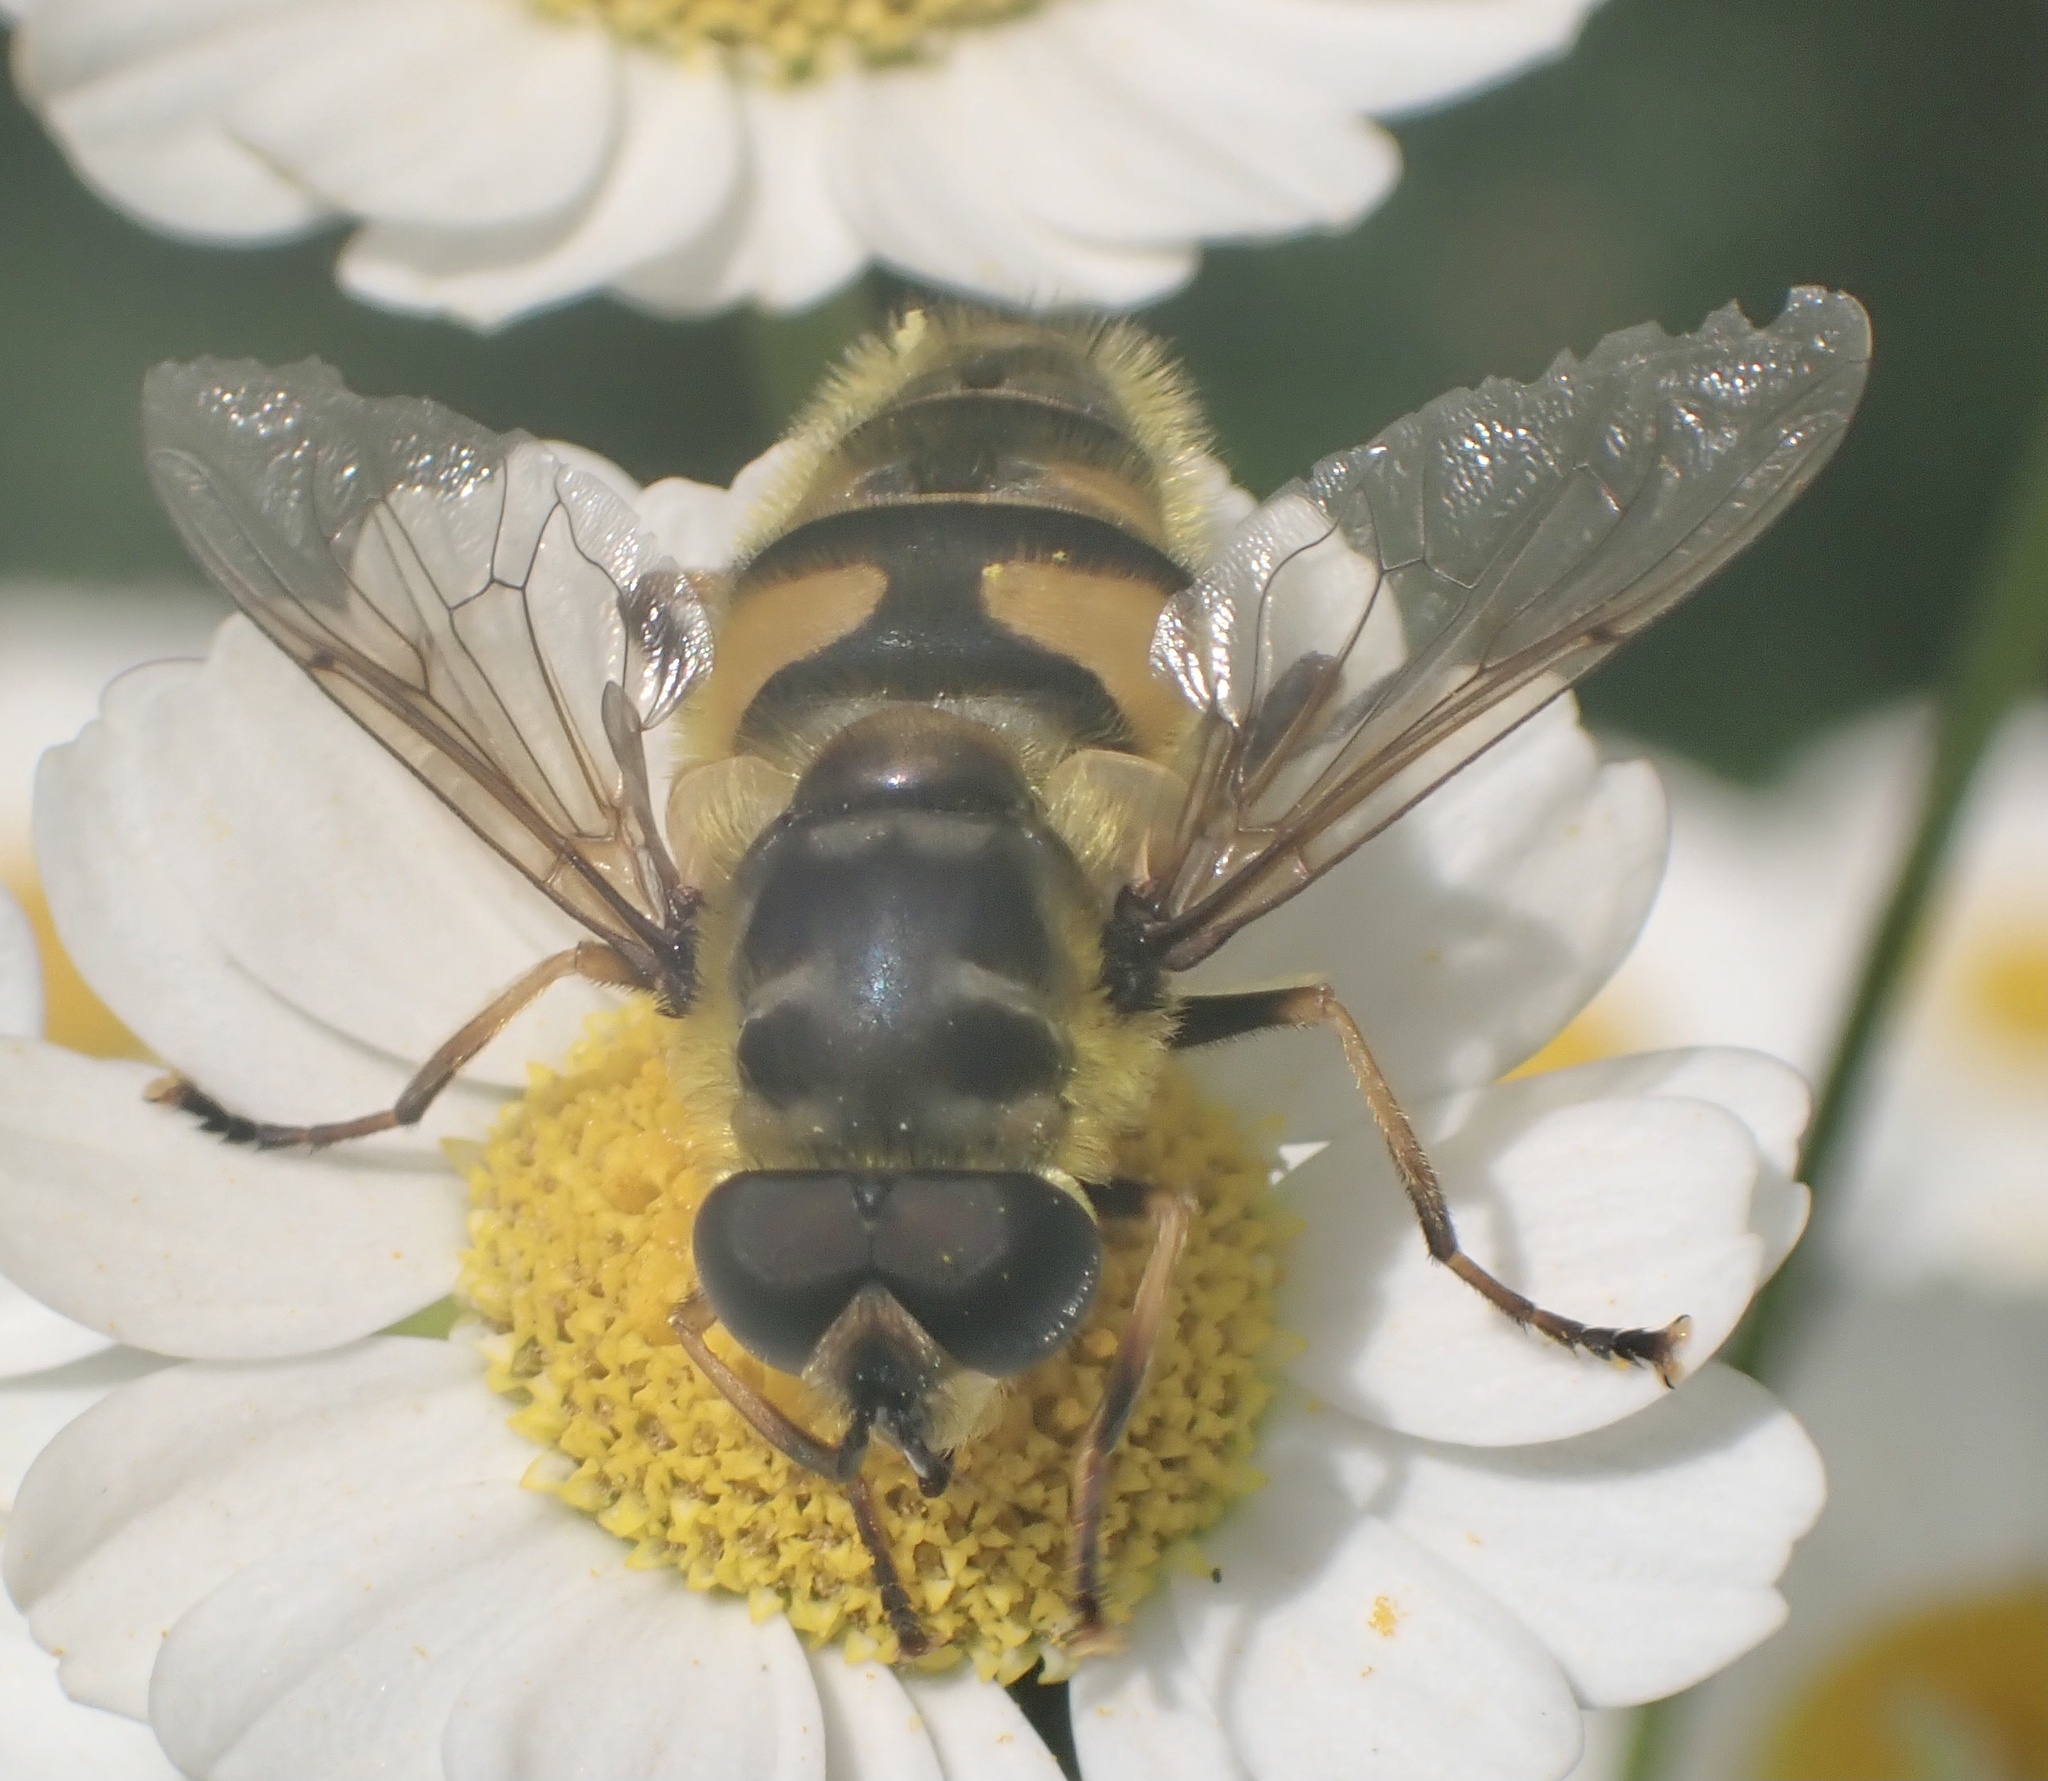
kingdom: Animalia
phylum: Arthropoda
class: Insecta
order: Diptera
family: Syrphidae
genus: Myathropa
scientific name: Myathropa florea
